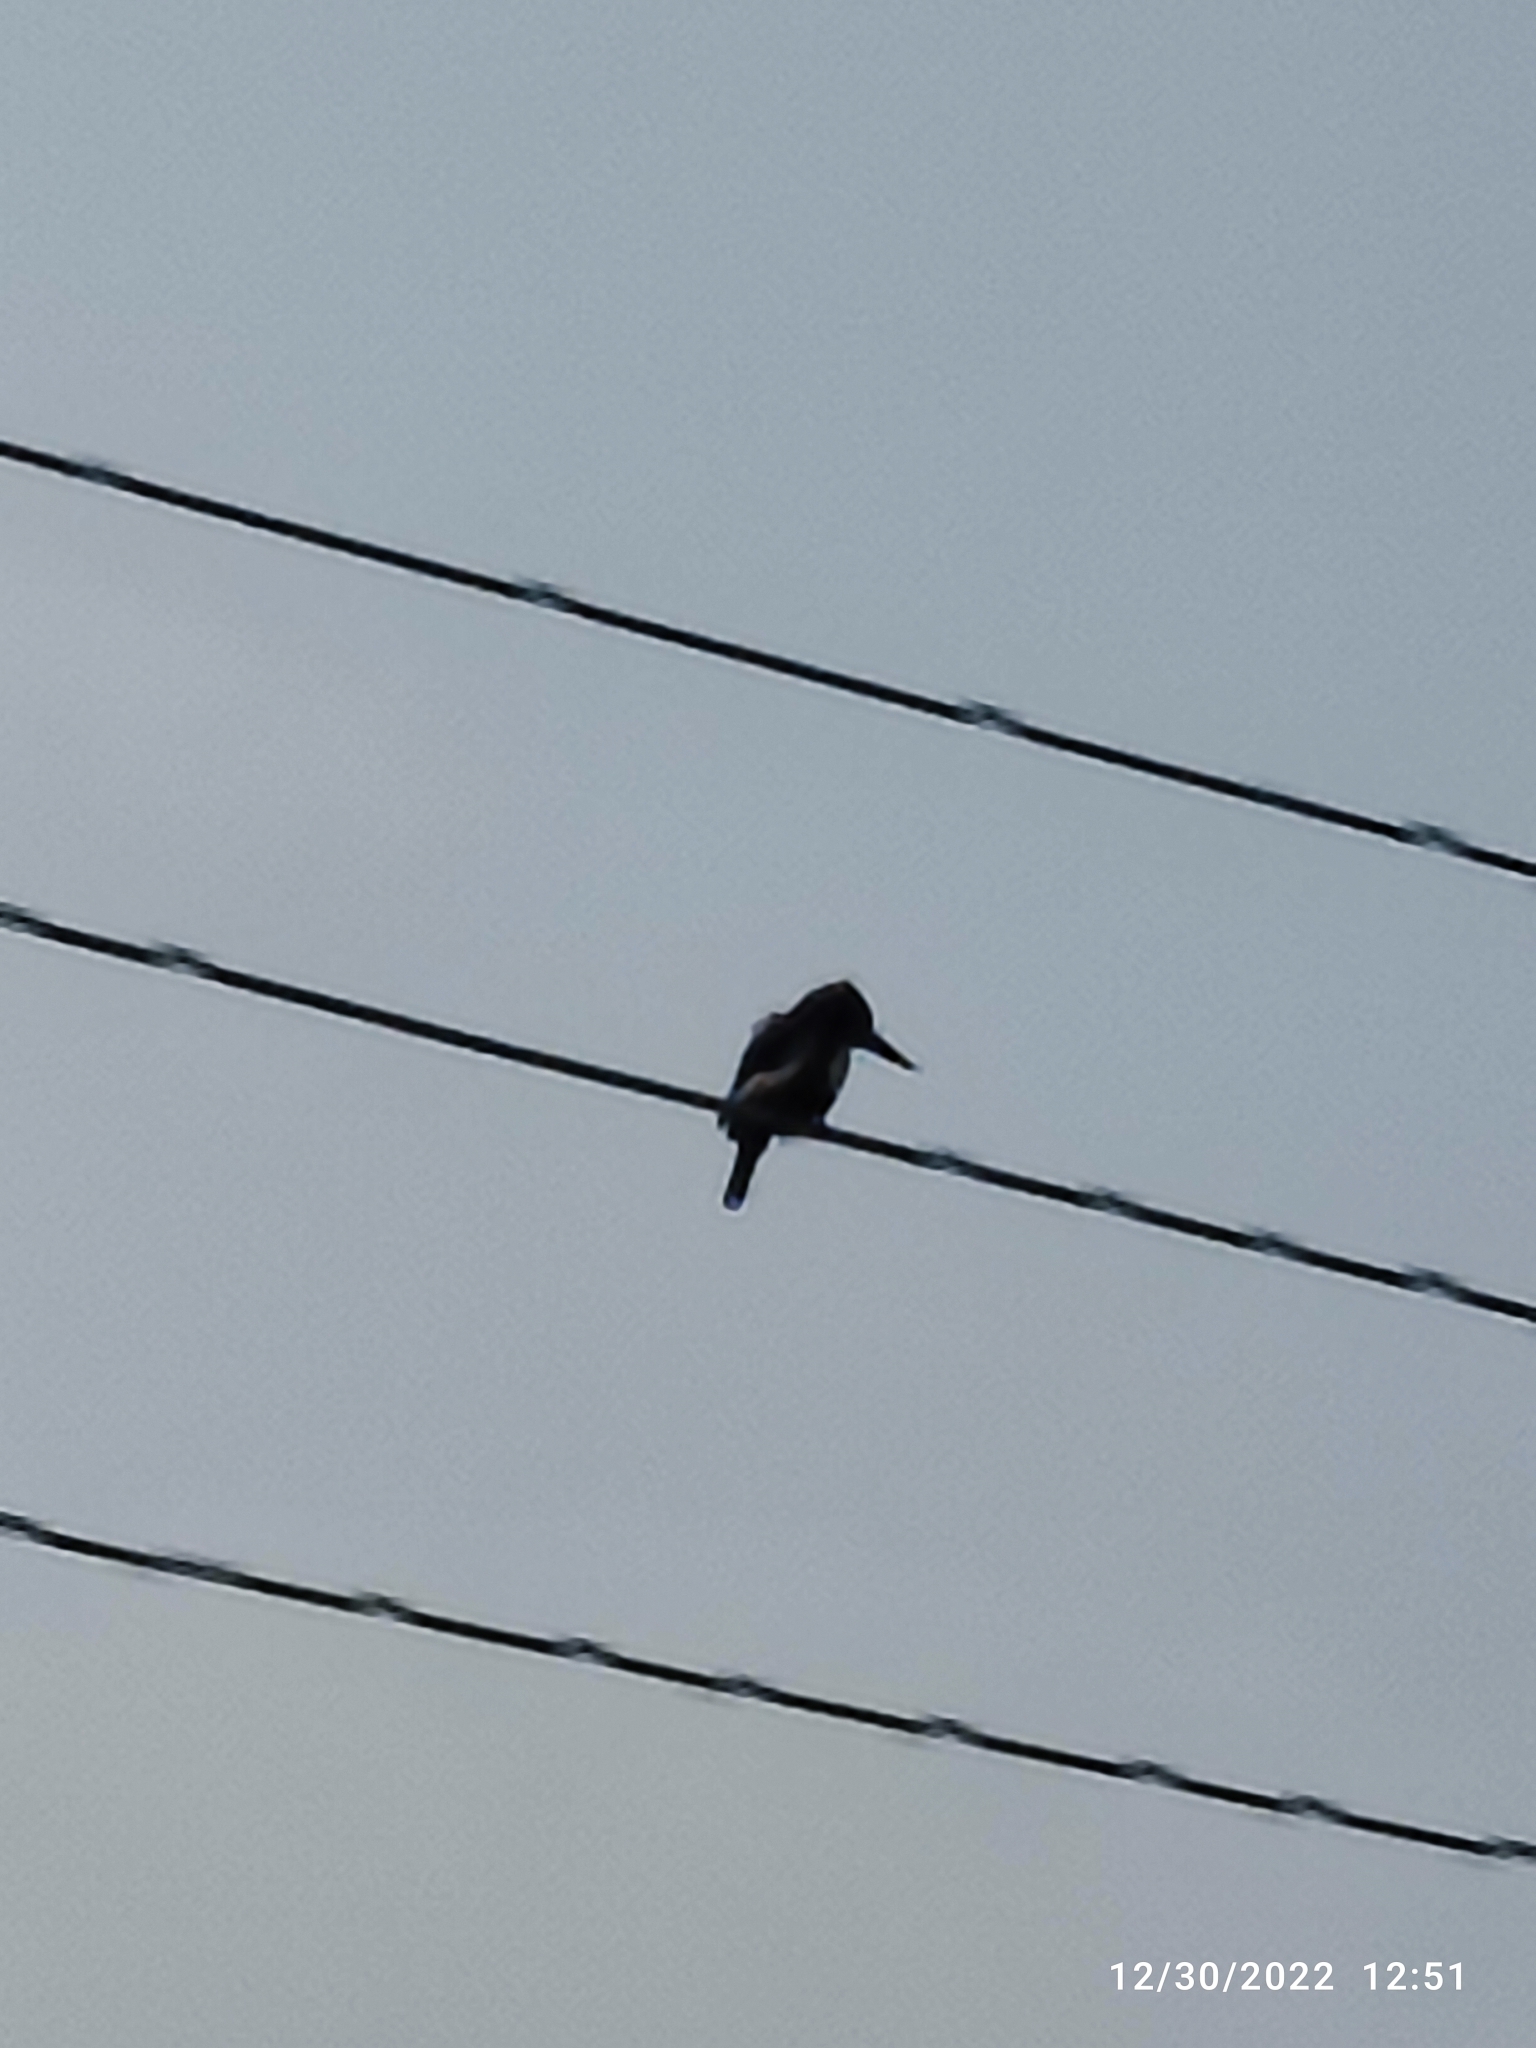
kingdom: Animalia
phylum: Chordata
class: Aves
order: Coraciiformes
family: Alcedinidae
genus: Halcyon
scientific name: Halcyon smyrnensis
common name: White-throated kingfisher
